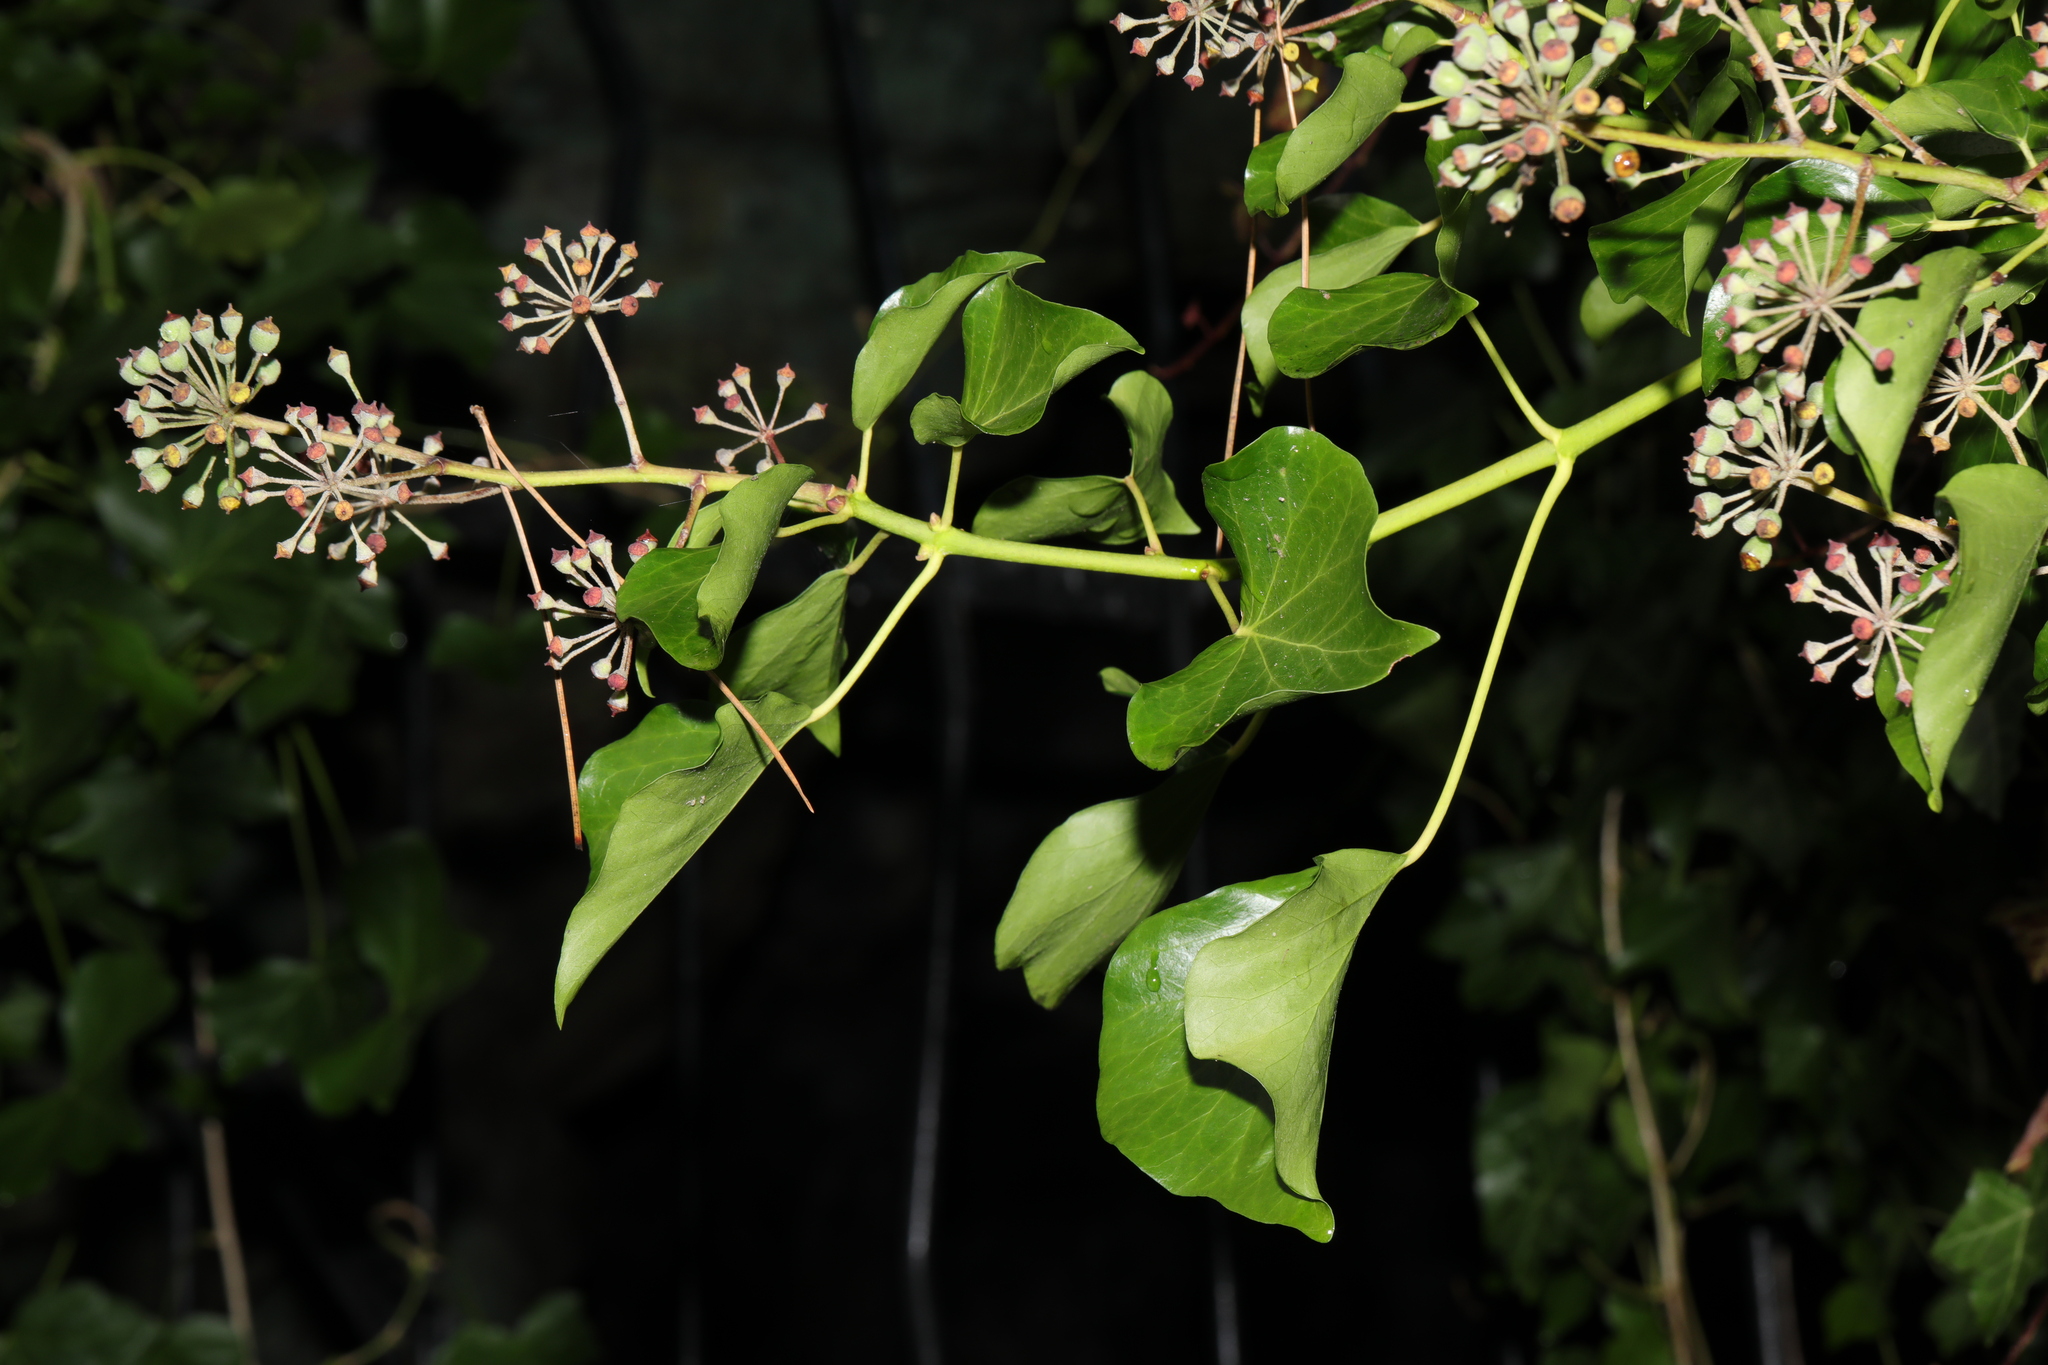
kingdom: Plantae
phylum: Tracheophyta
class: Magnoliopsida
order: Apiales
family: Araliaceae
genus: Hedera
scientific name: Hedera helix
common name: Ivy
